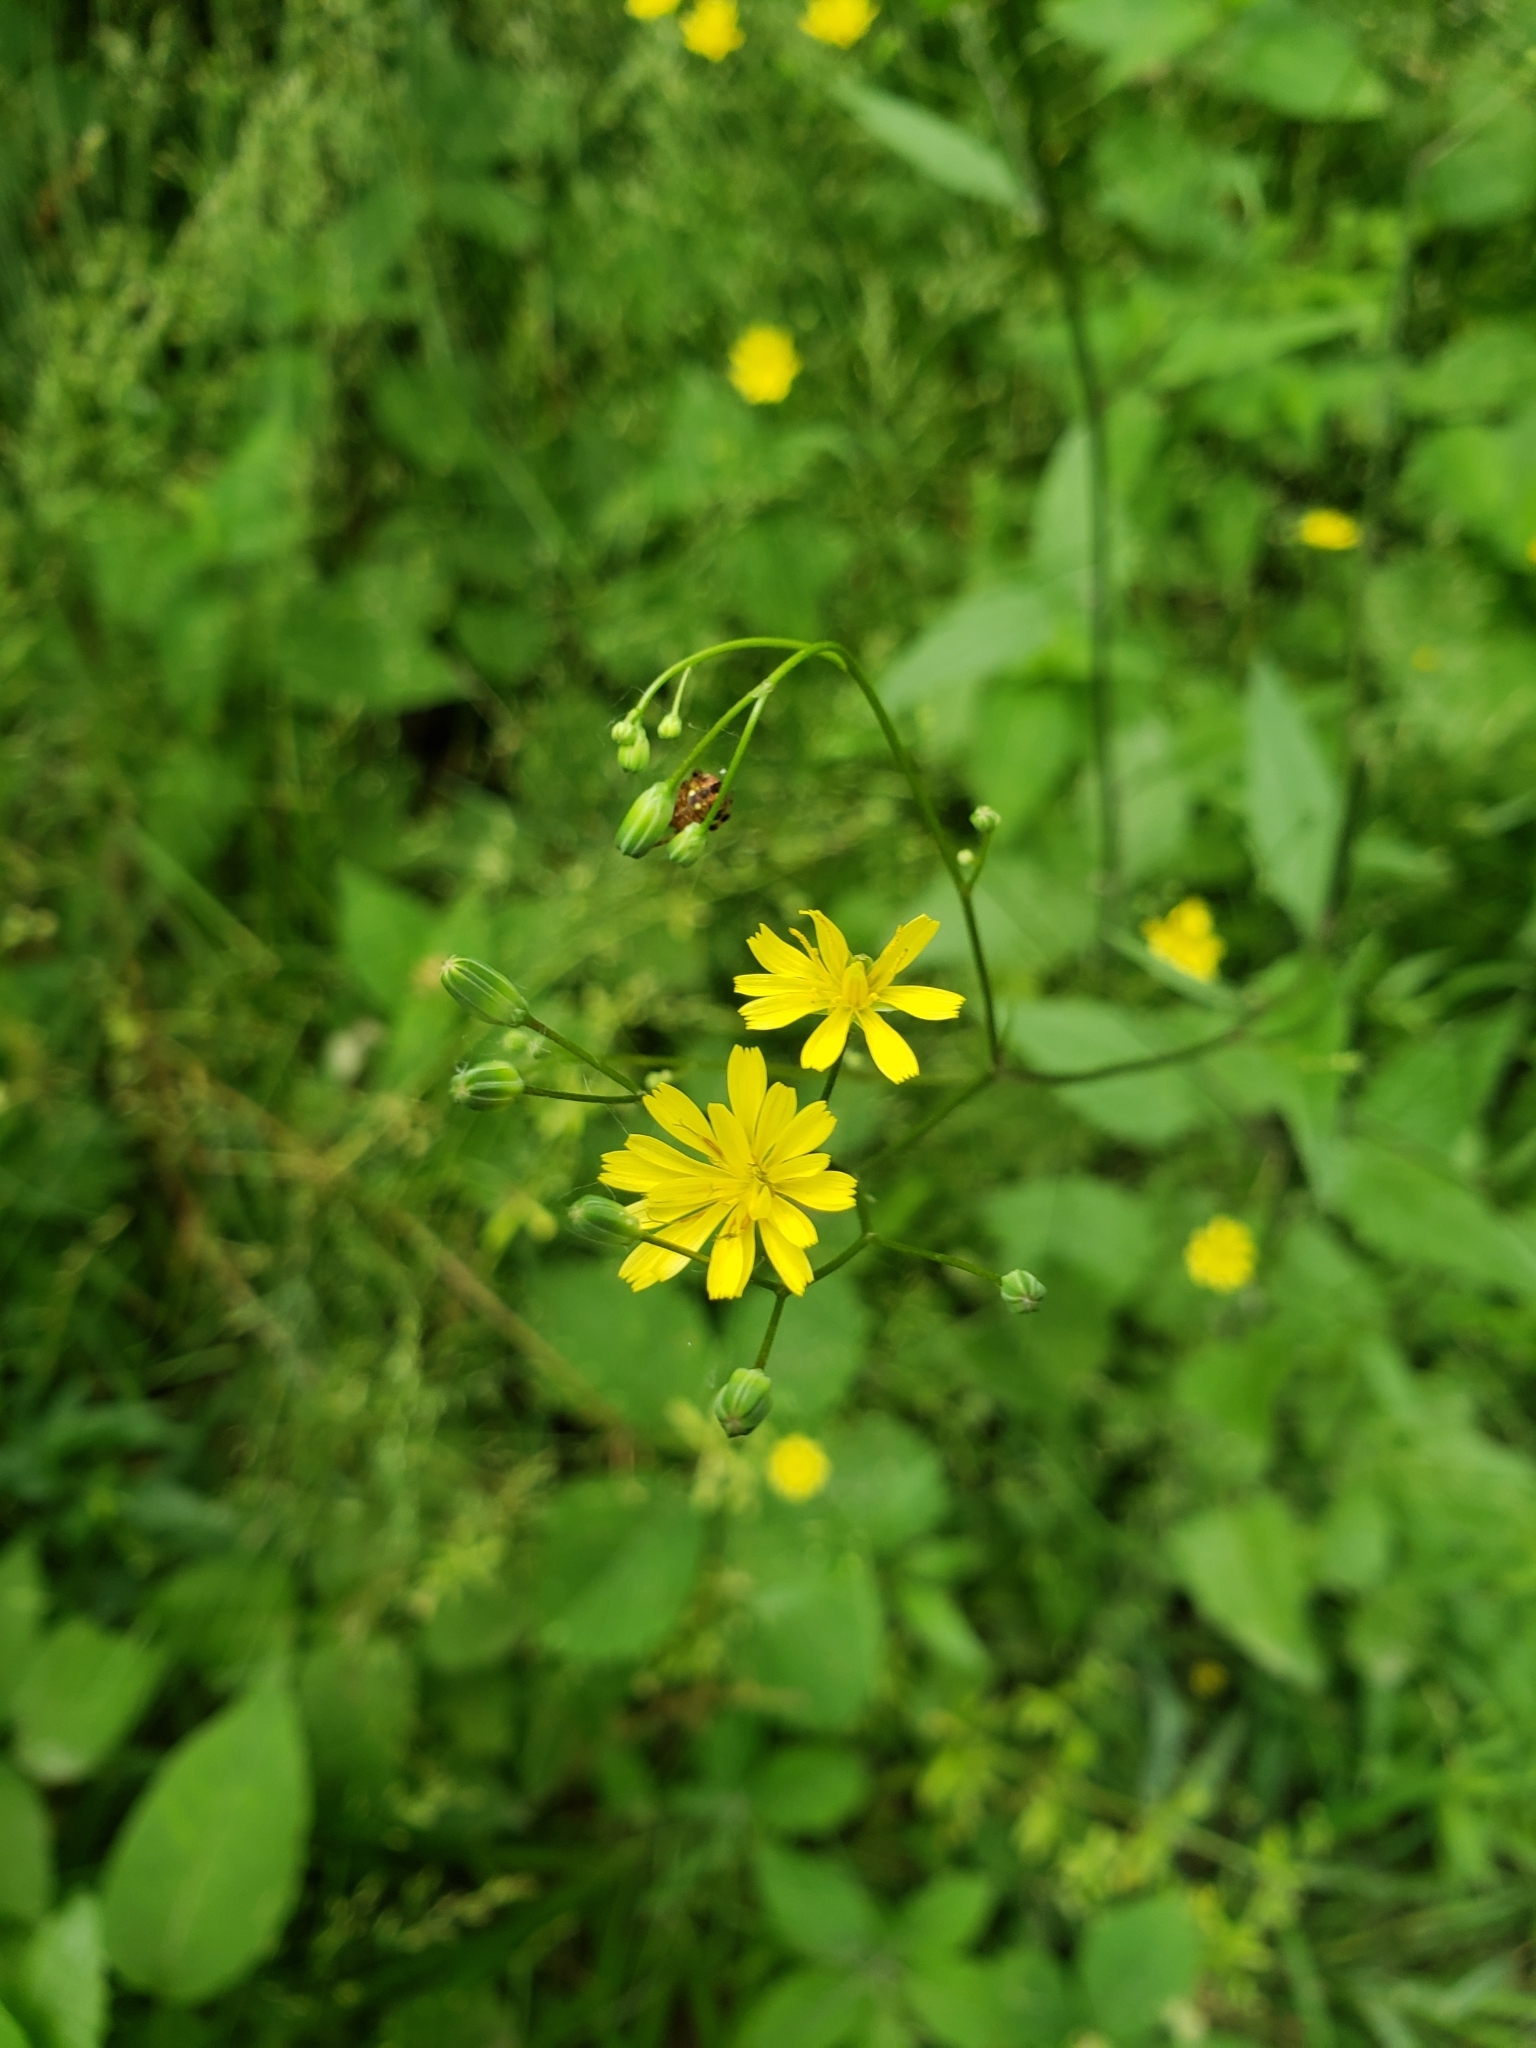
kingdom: Plantae
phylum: Tracheophyta
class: Magnoliopsida
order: Asterales
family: Asteraceae
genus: Lapsana
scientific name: Lapsana communis
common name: Nipplewort
